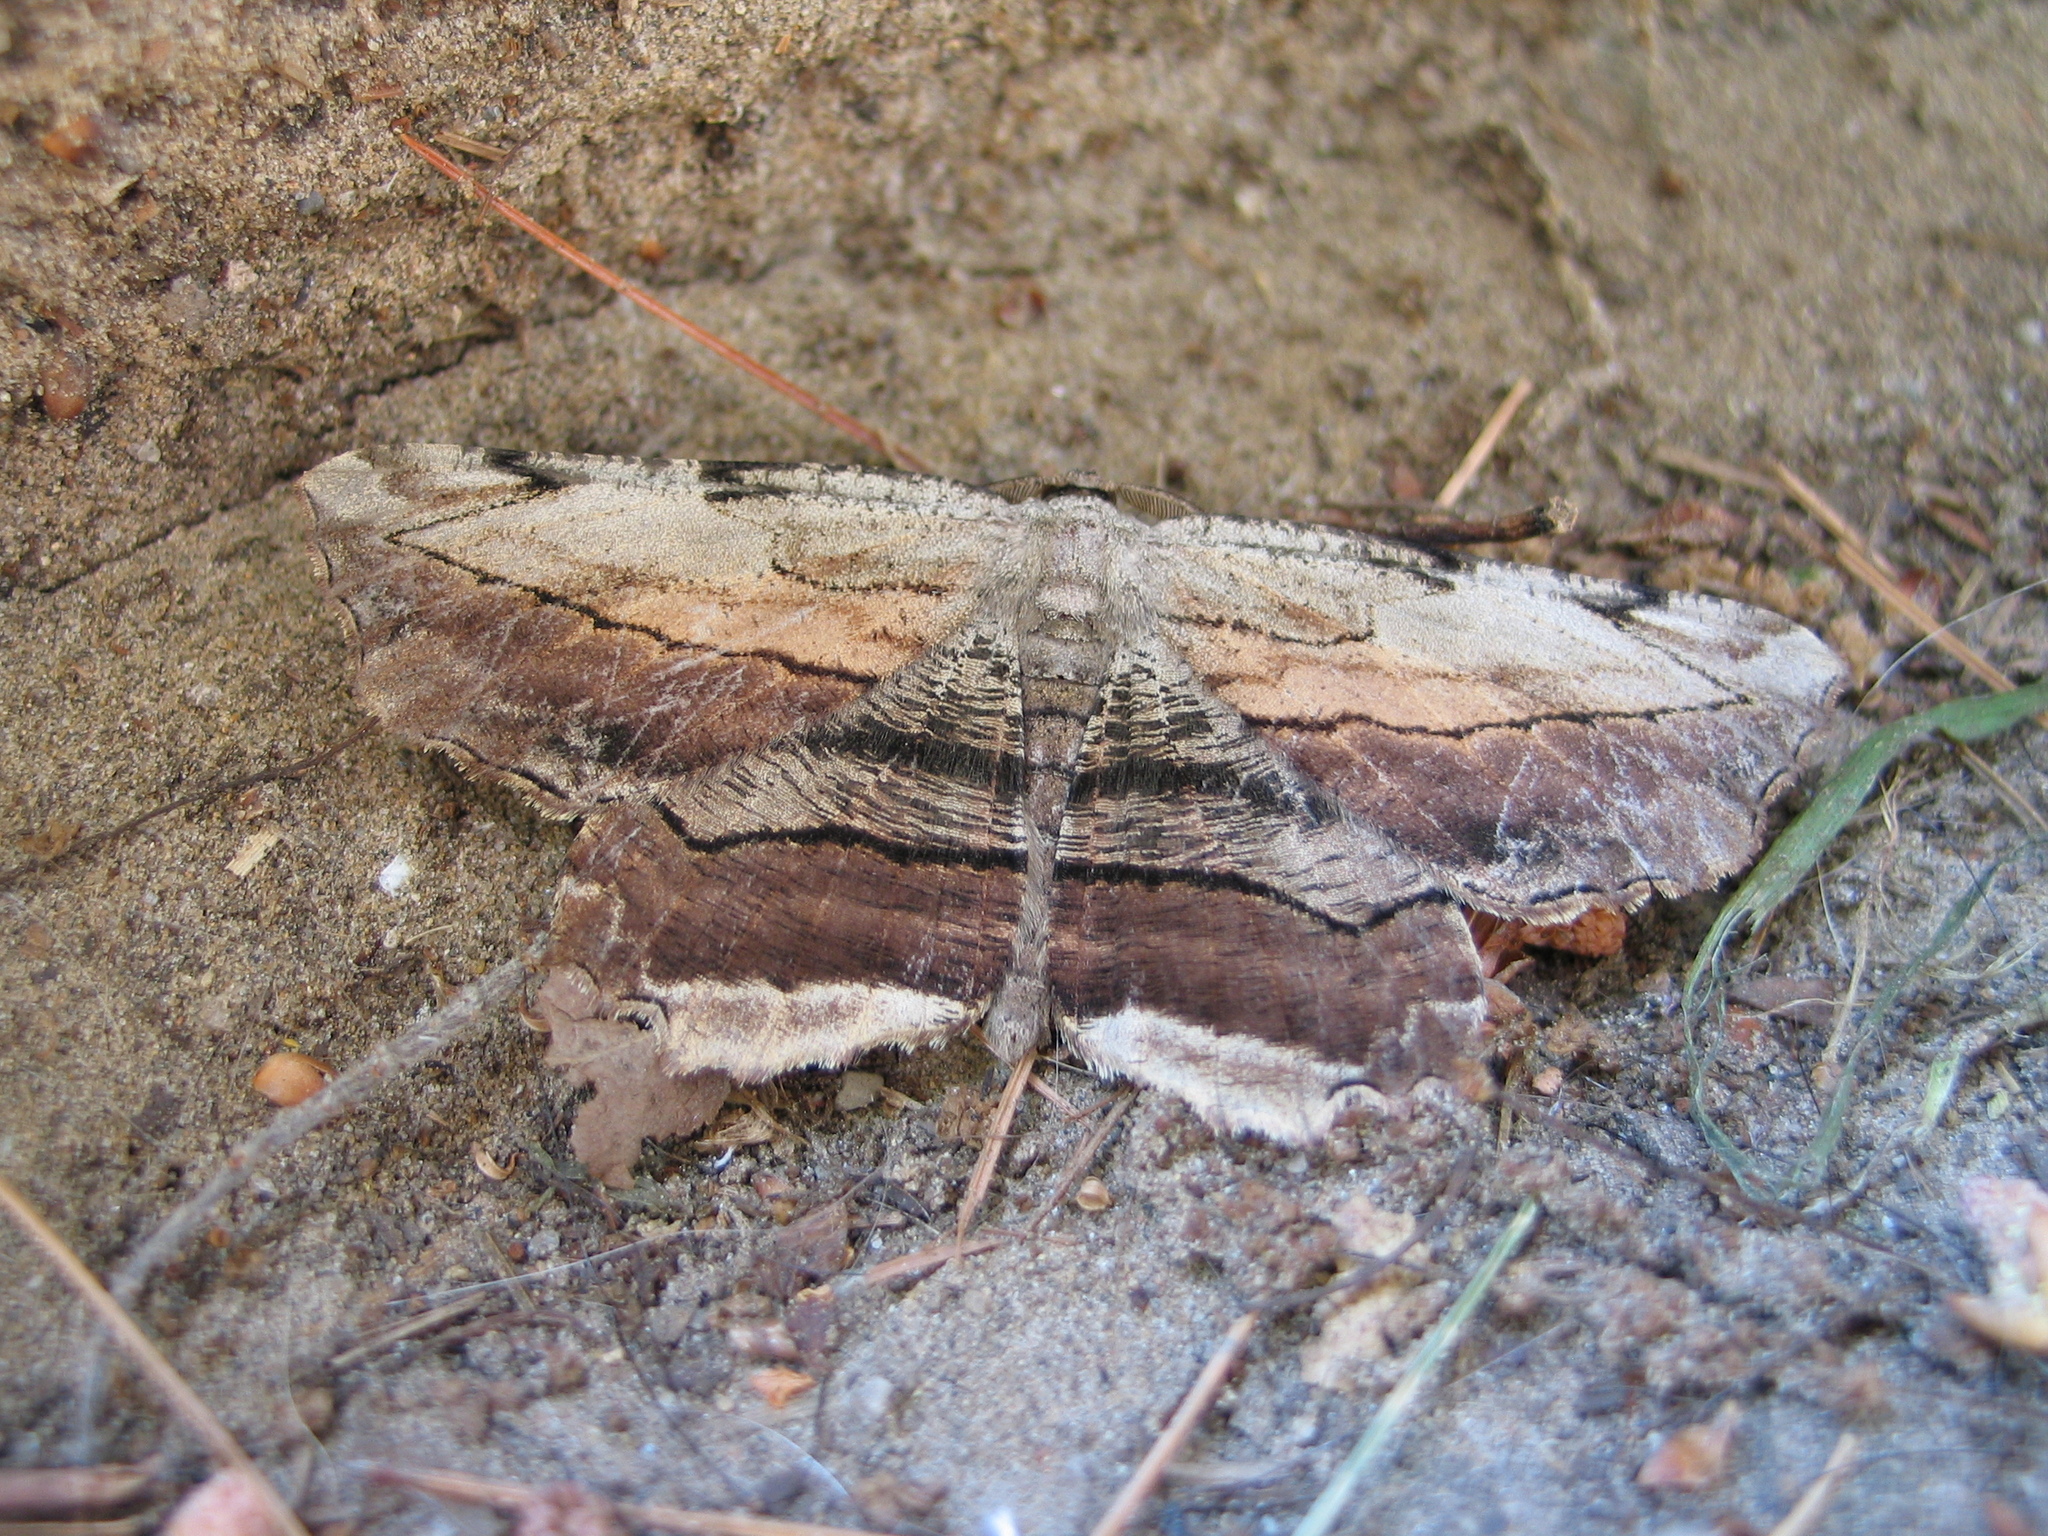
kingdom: Animalia
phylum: Arthropoda
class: Insecta
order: Lepidoptera
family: Geometridae
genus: Lytrosis
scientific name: Lytrosis unitaria
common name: Common lytrosis
